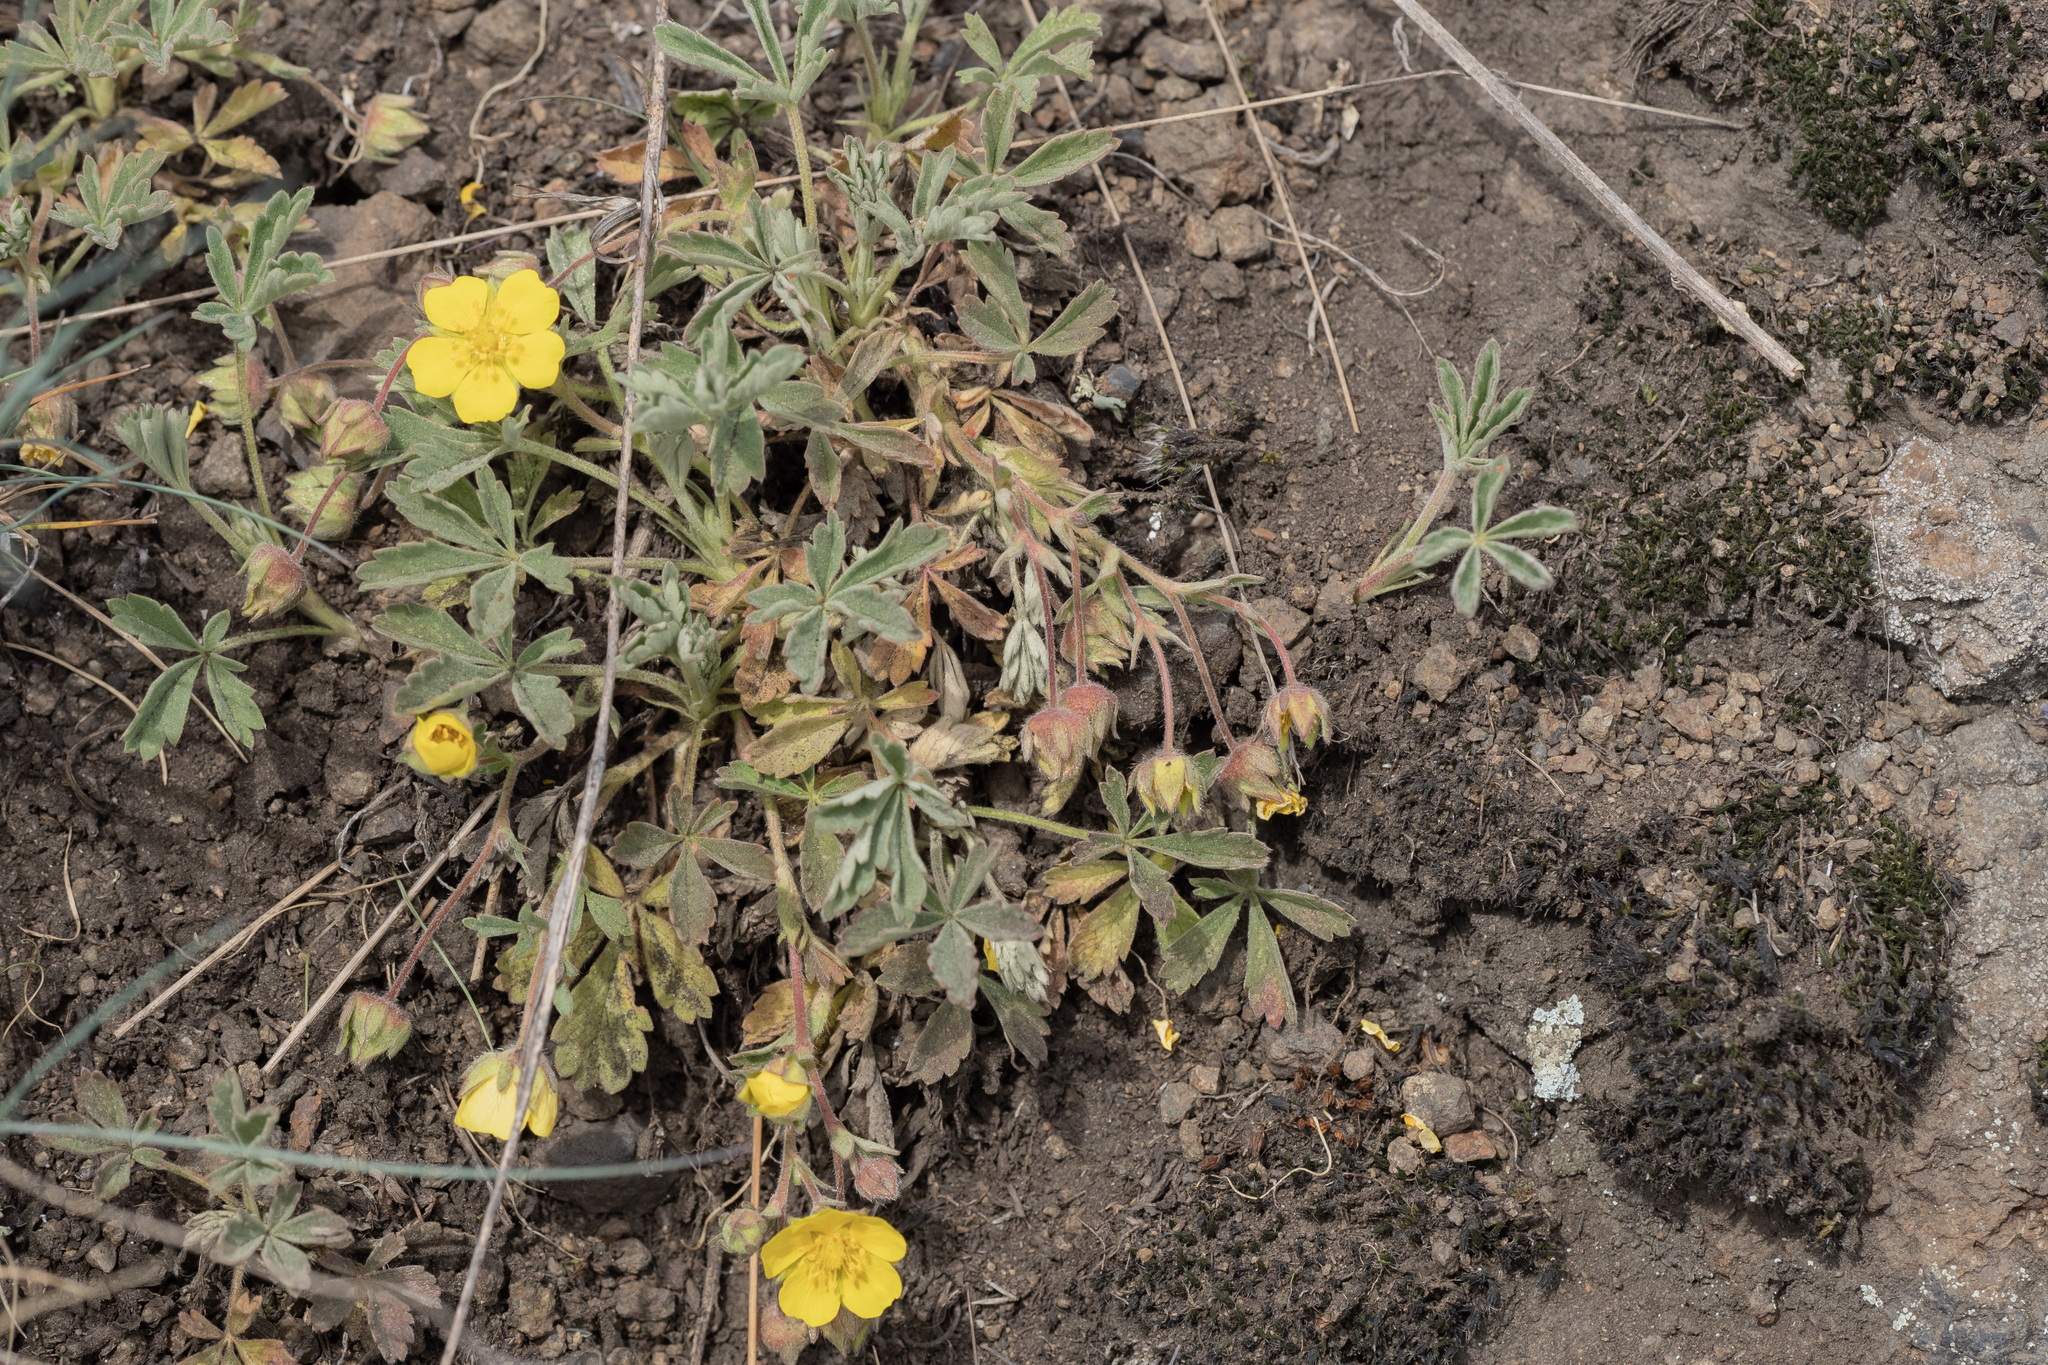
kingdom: Plantae
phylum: Tracheophyta
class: Magnoliopsida
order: Rosales
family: Rosaceae
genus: Potentilla
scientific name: Potentilla incana
